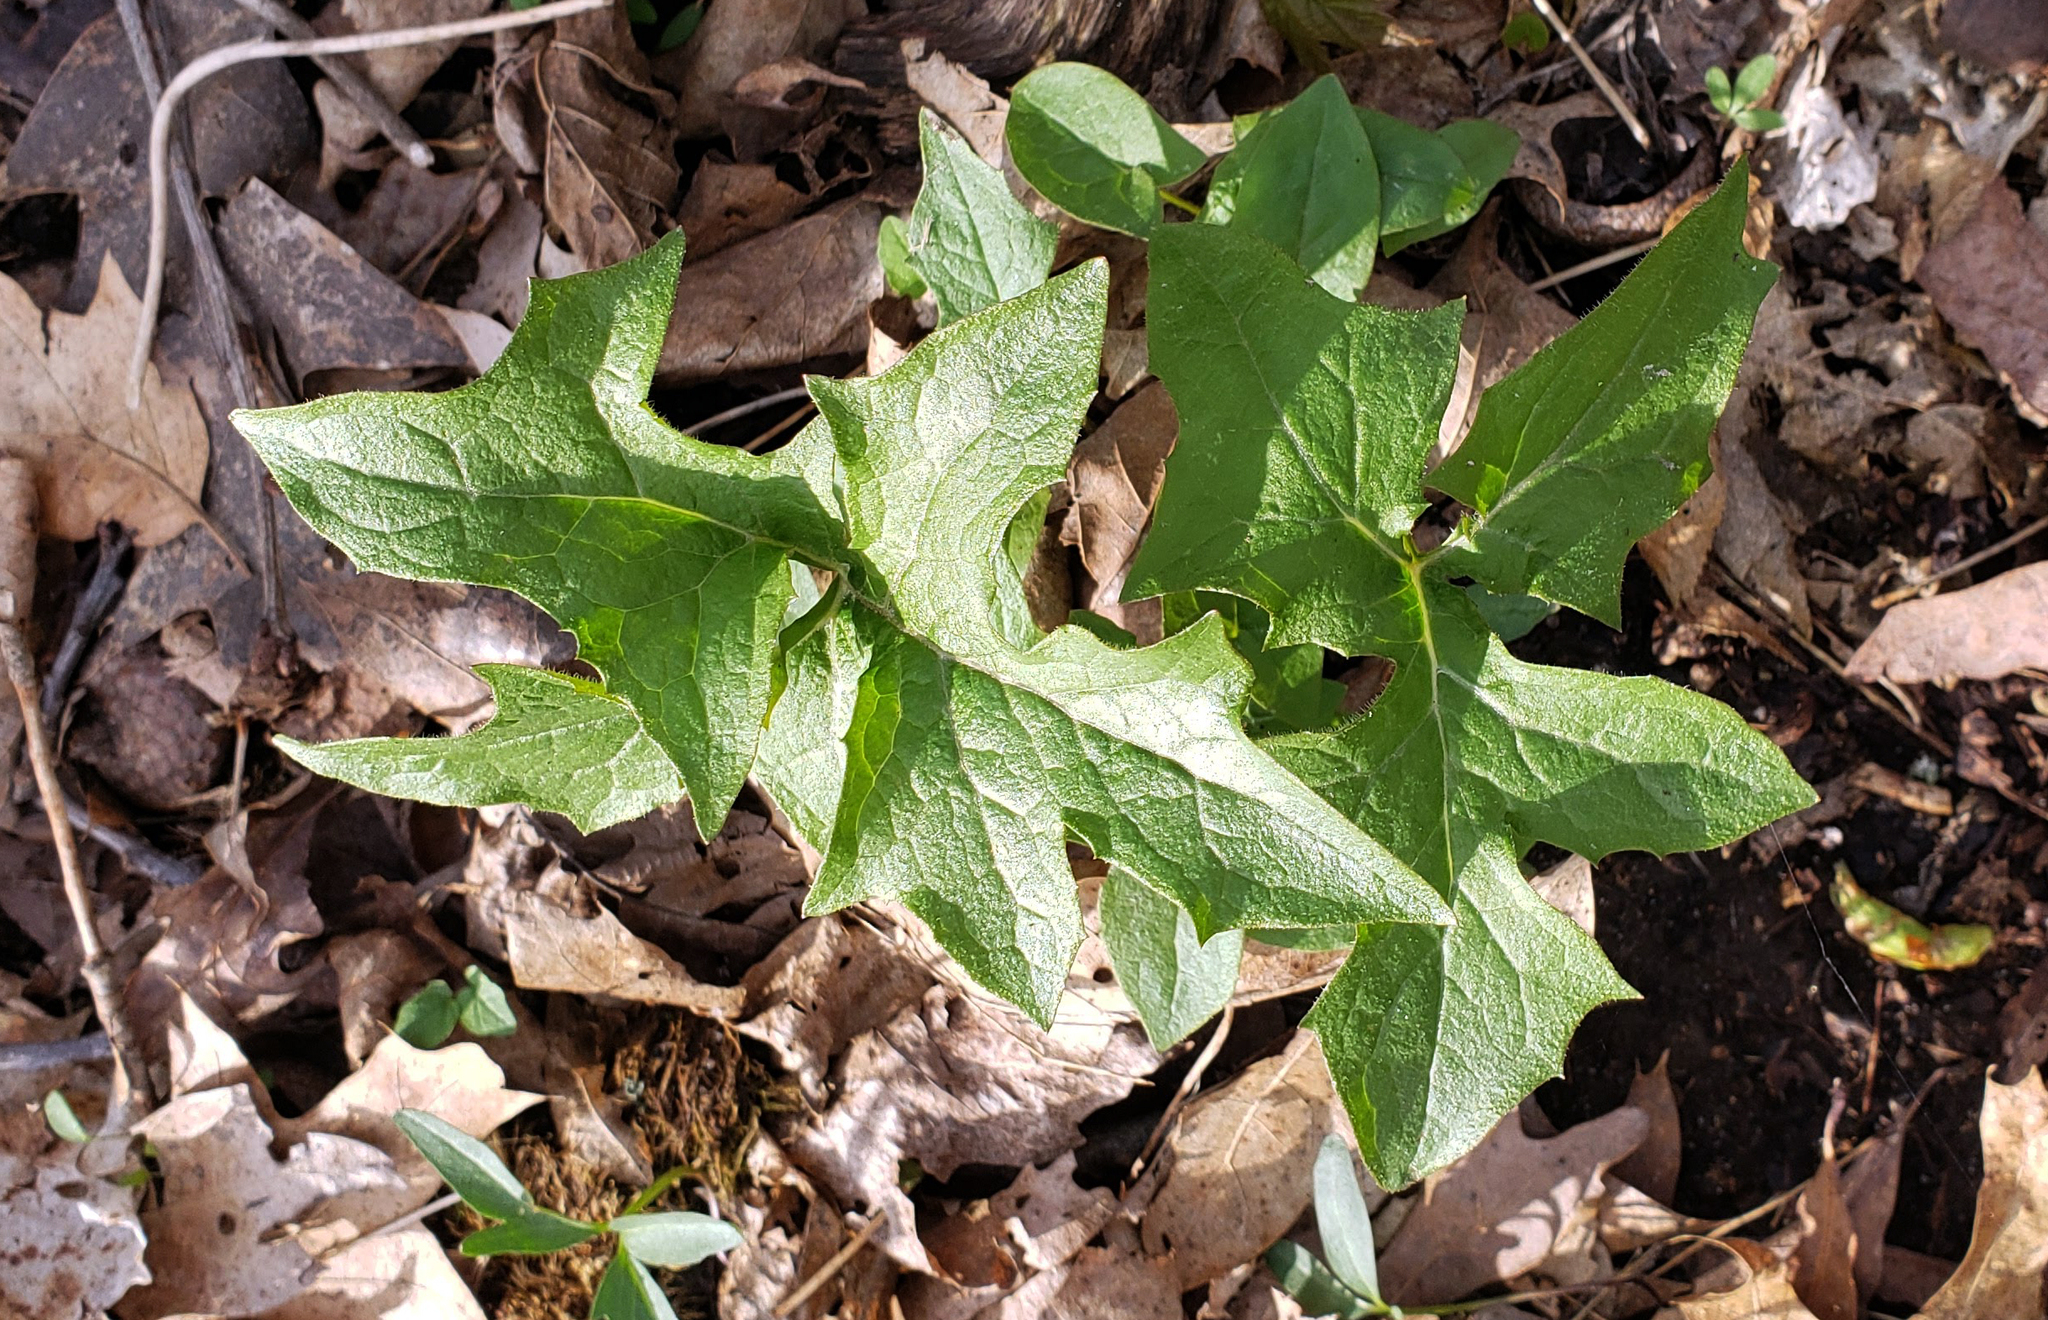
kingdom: Plantae
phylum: Tracheophyta
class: Magnoliopsida
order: Asterales
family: Asteraceae
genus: Nabalus
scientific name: Nabalus albus
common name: White rattlesnakeroot
